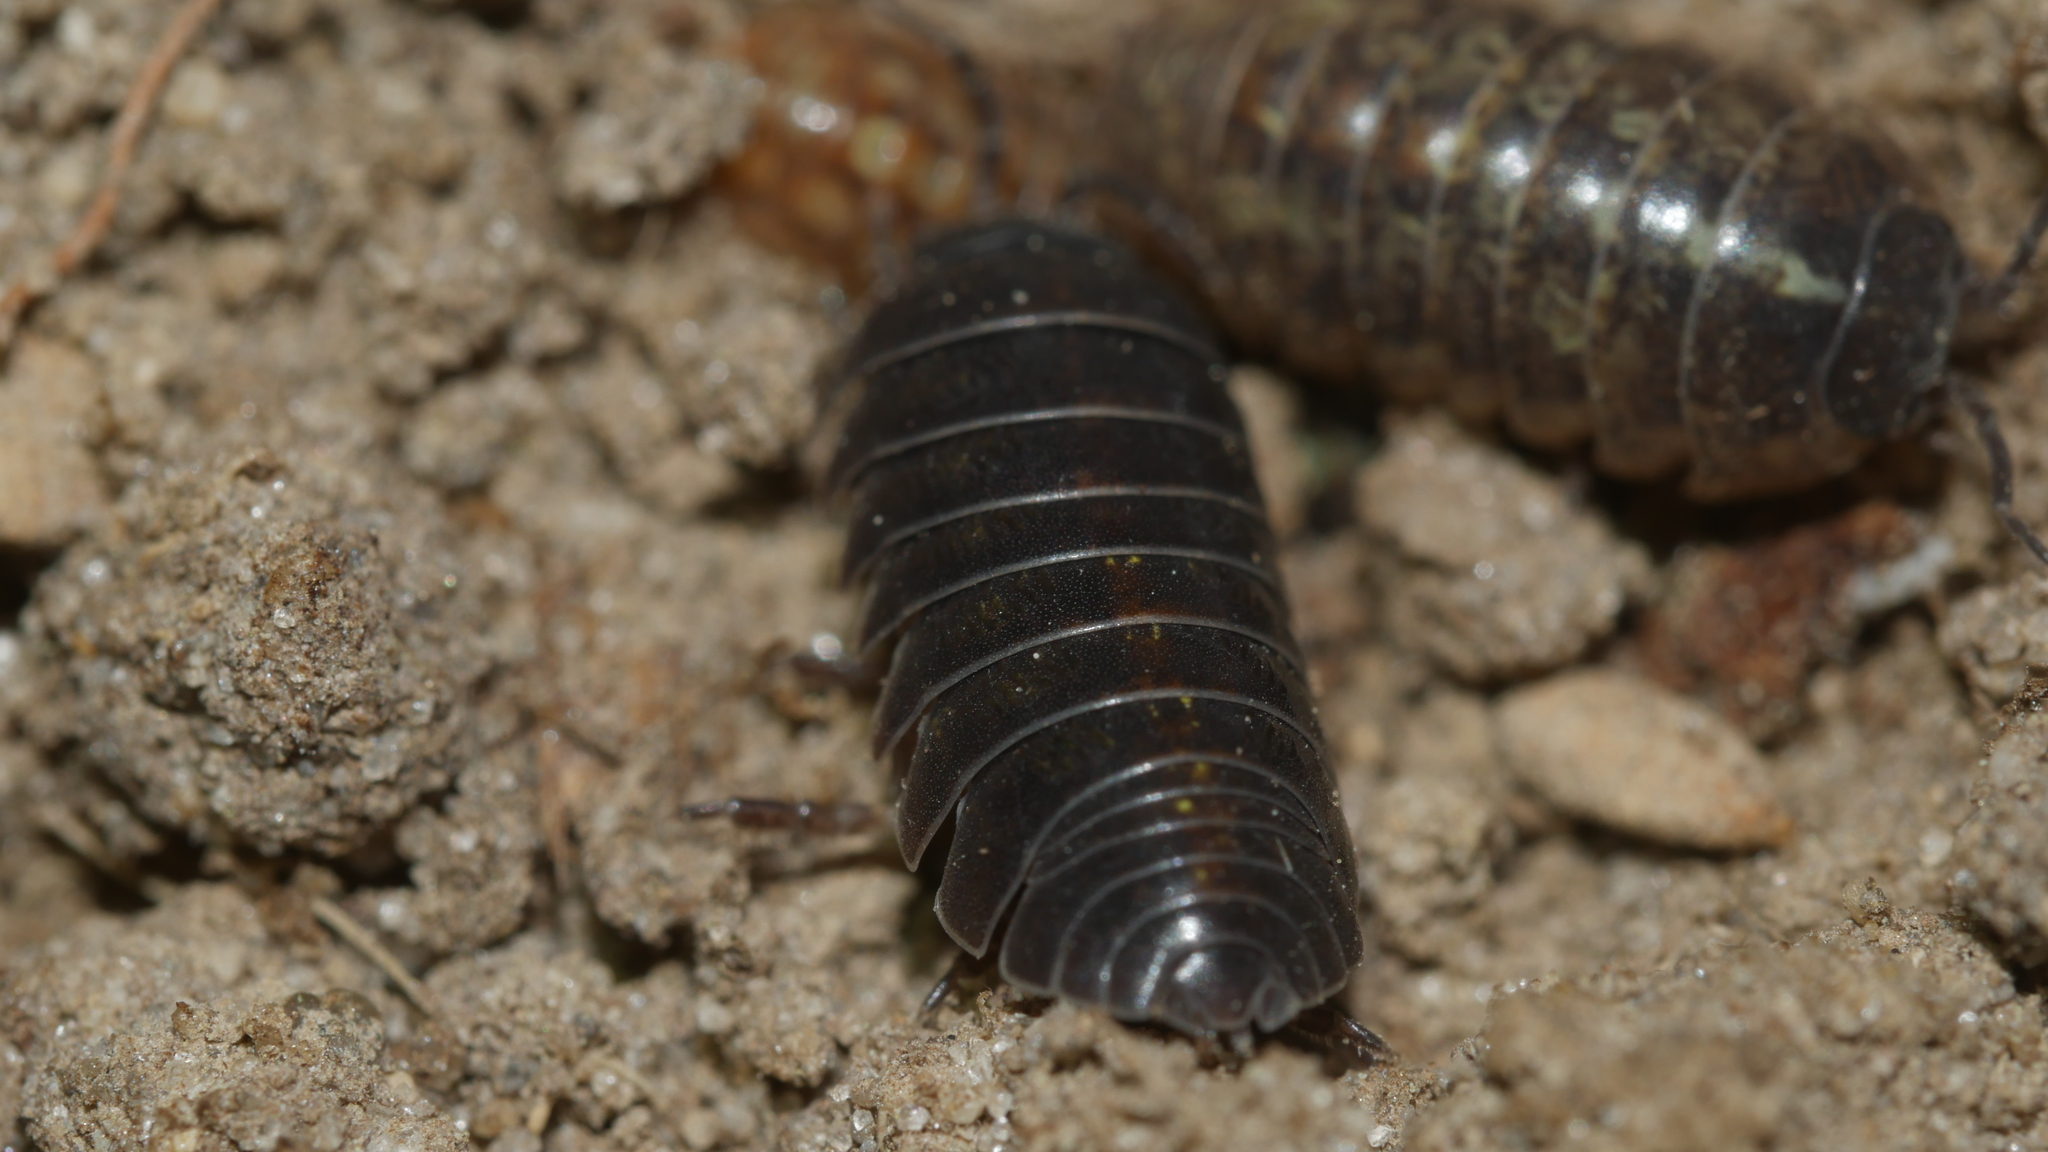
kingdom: Animalia
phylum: Arthropoda
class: Malacostraca
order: Isopoda
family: Armadillidiidae
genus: Armadillidium
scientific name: Armadillidium vulgare
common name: Common pill woodlouse
